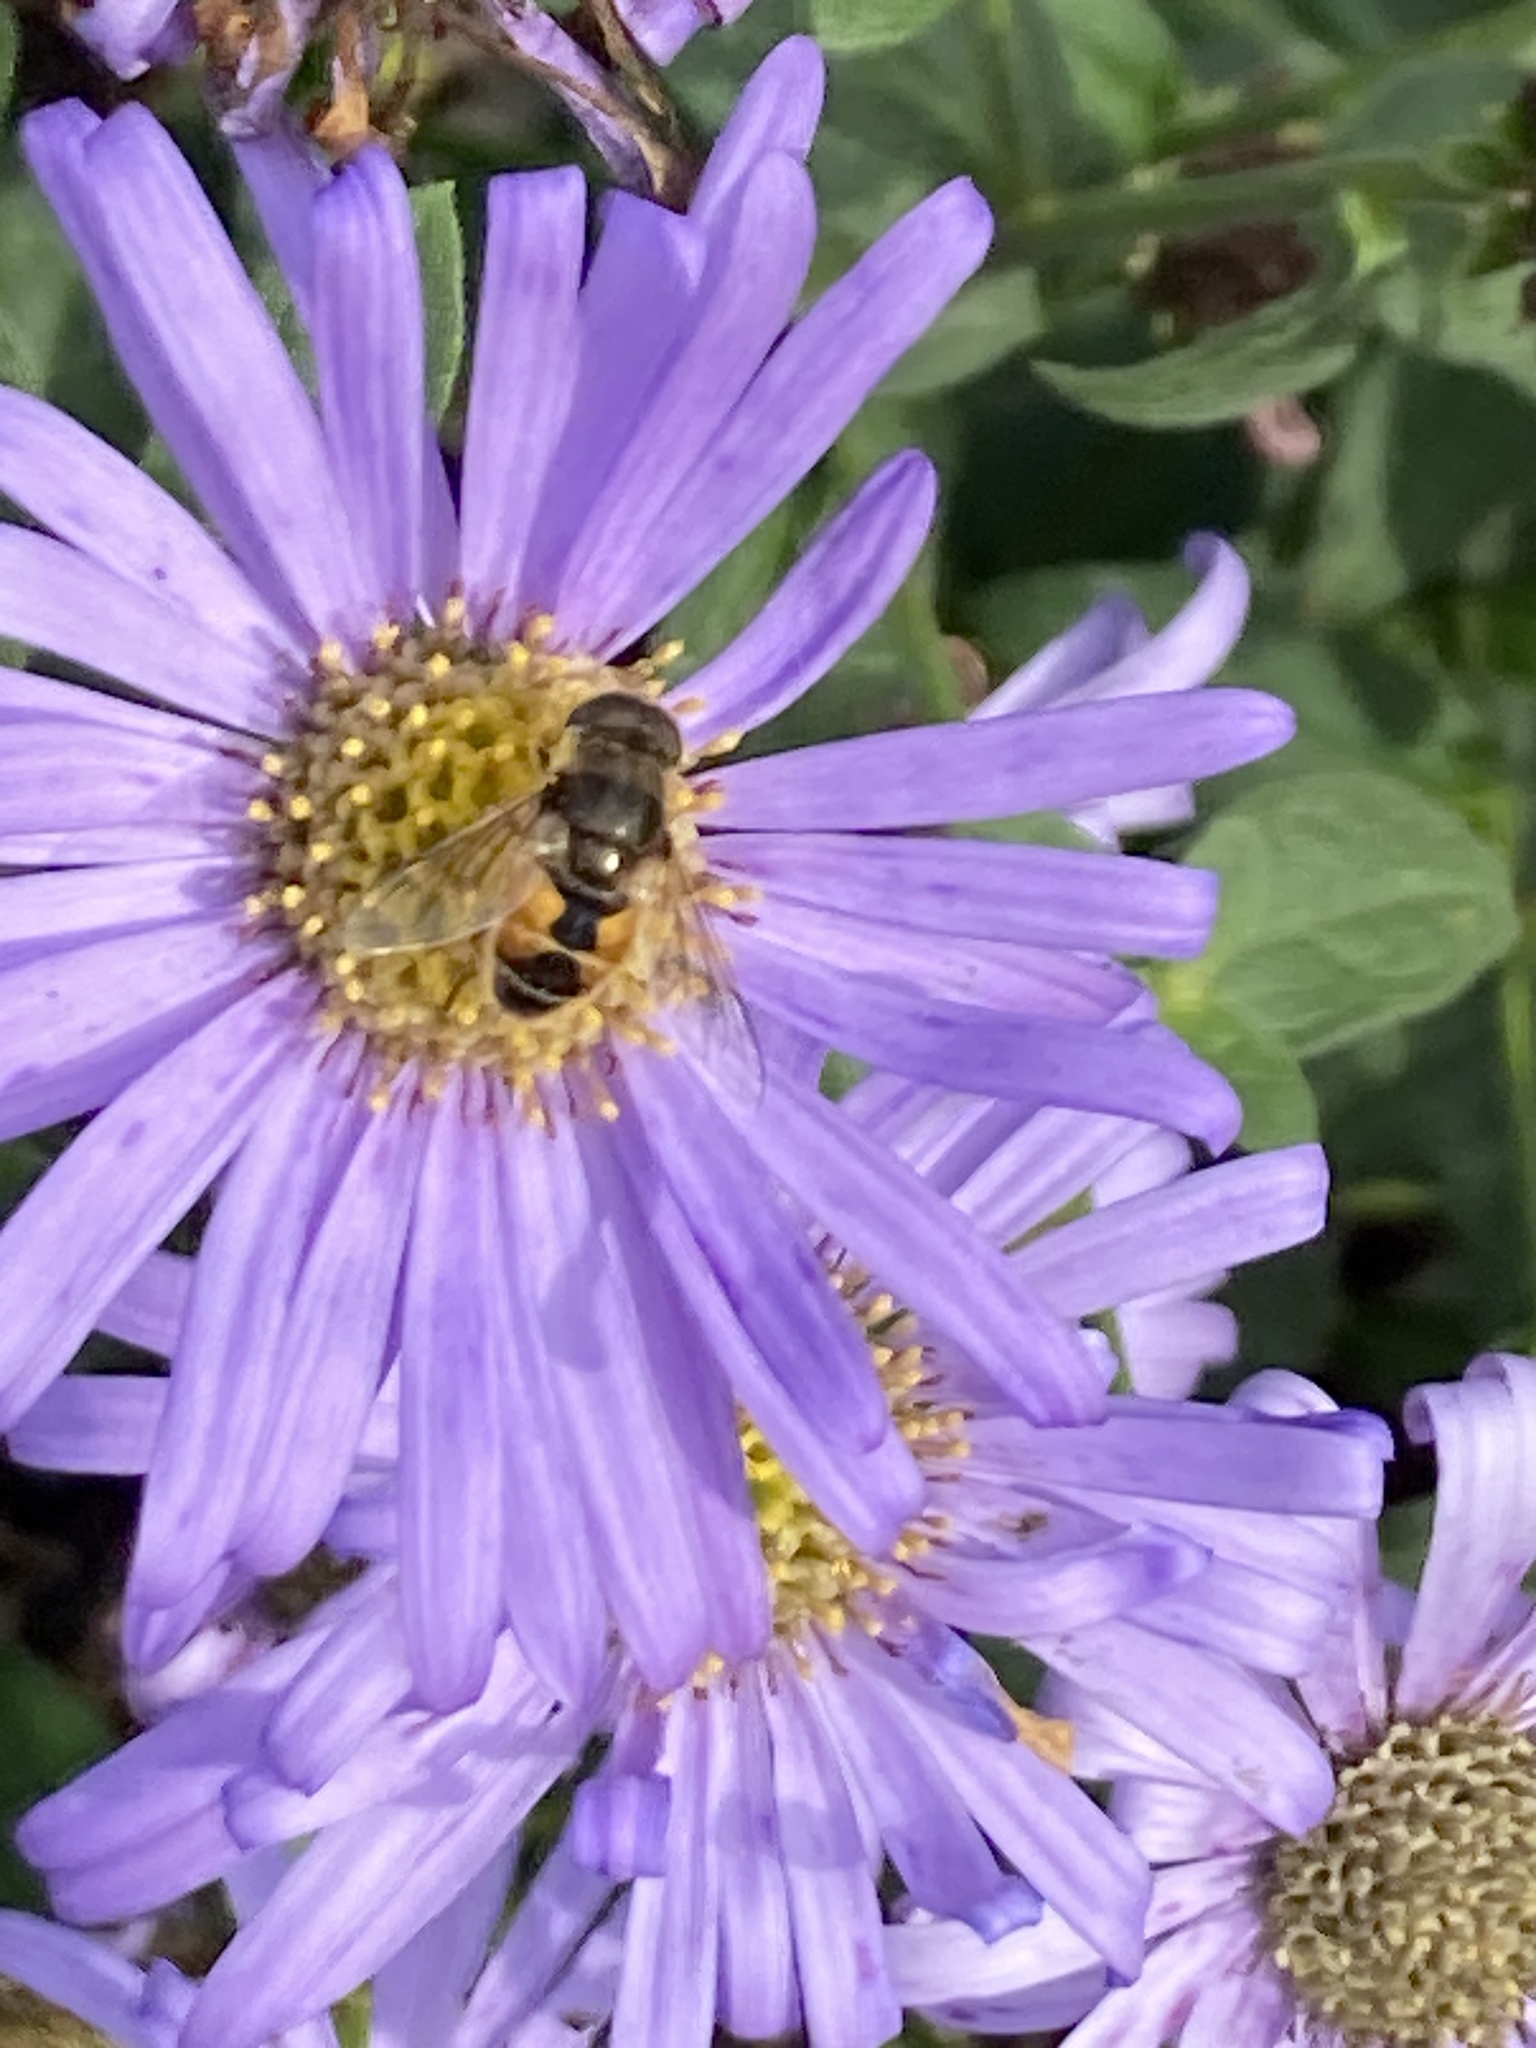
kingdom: Animalia
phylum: Arthropoda
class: Insecta
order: Diptera
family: Syrphidae
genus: Eoseristalis
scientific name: Eoseristalis
